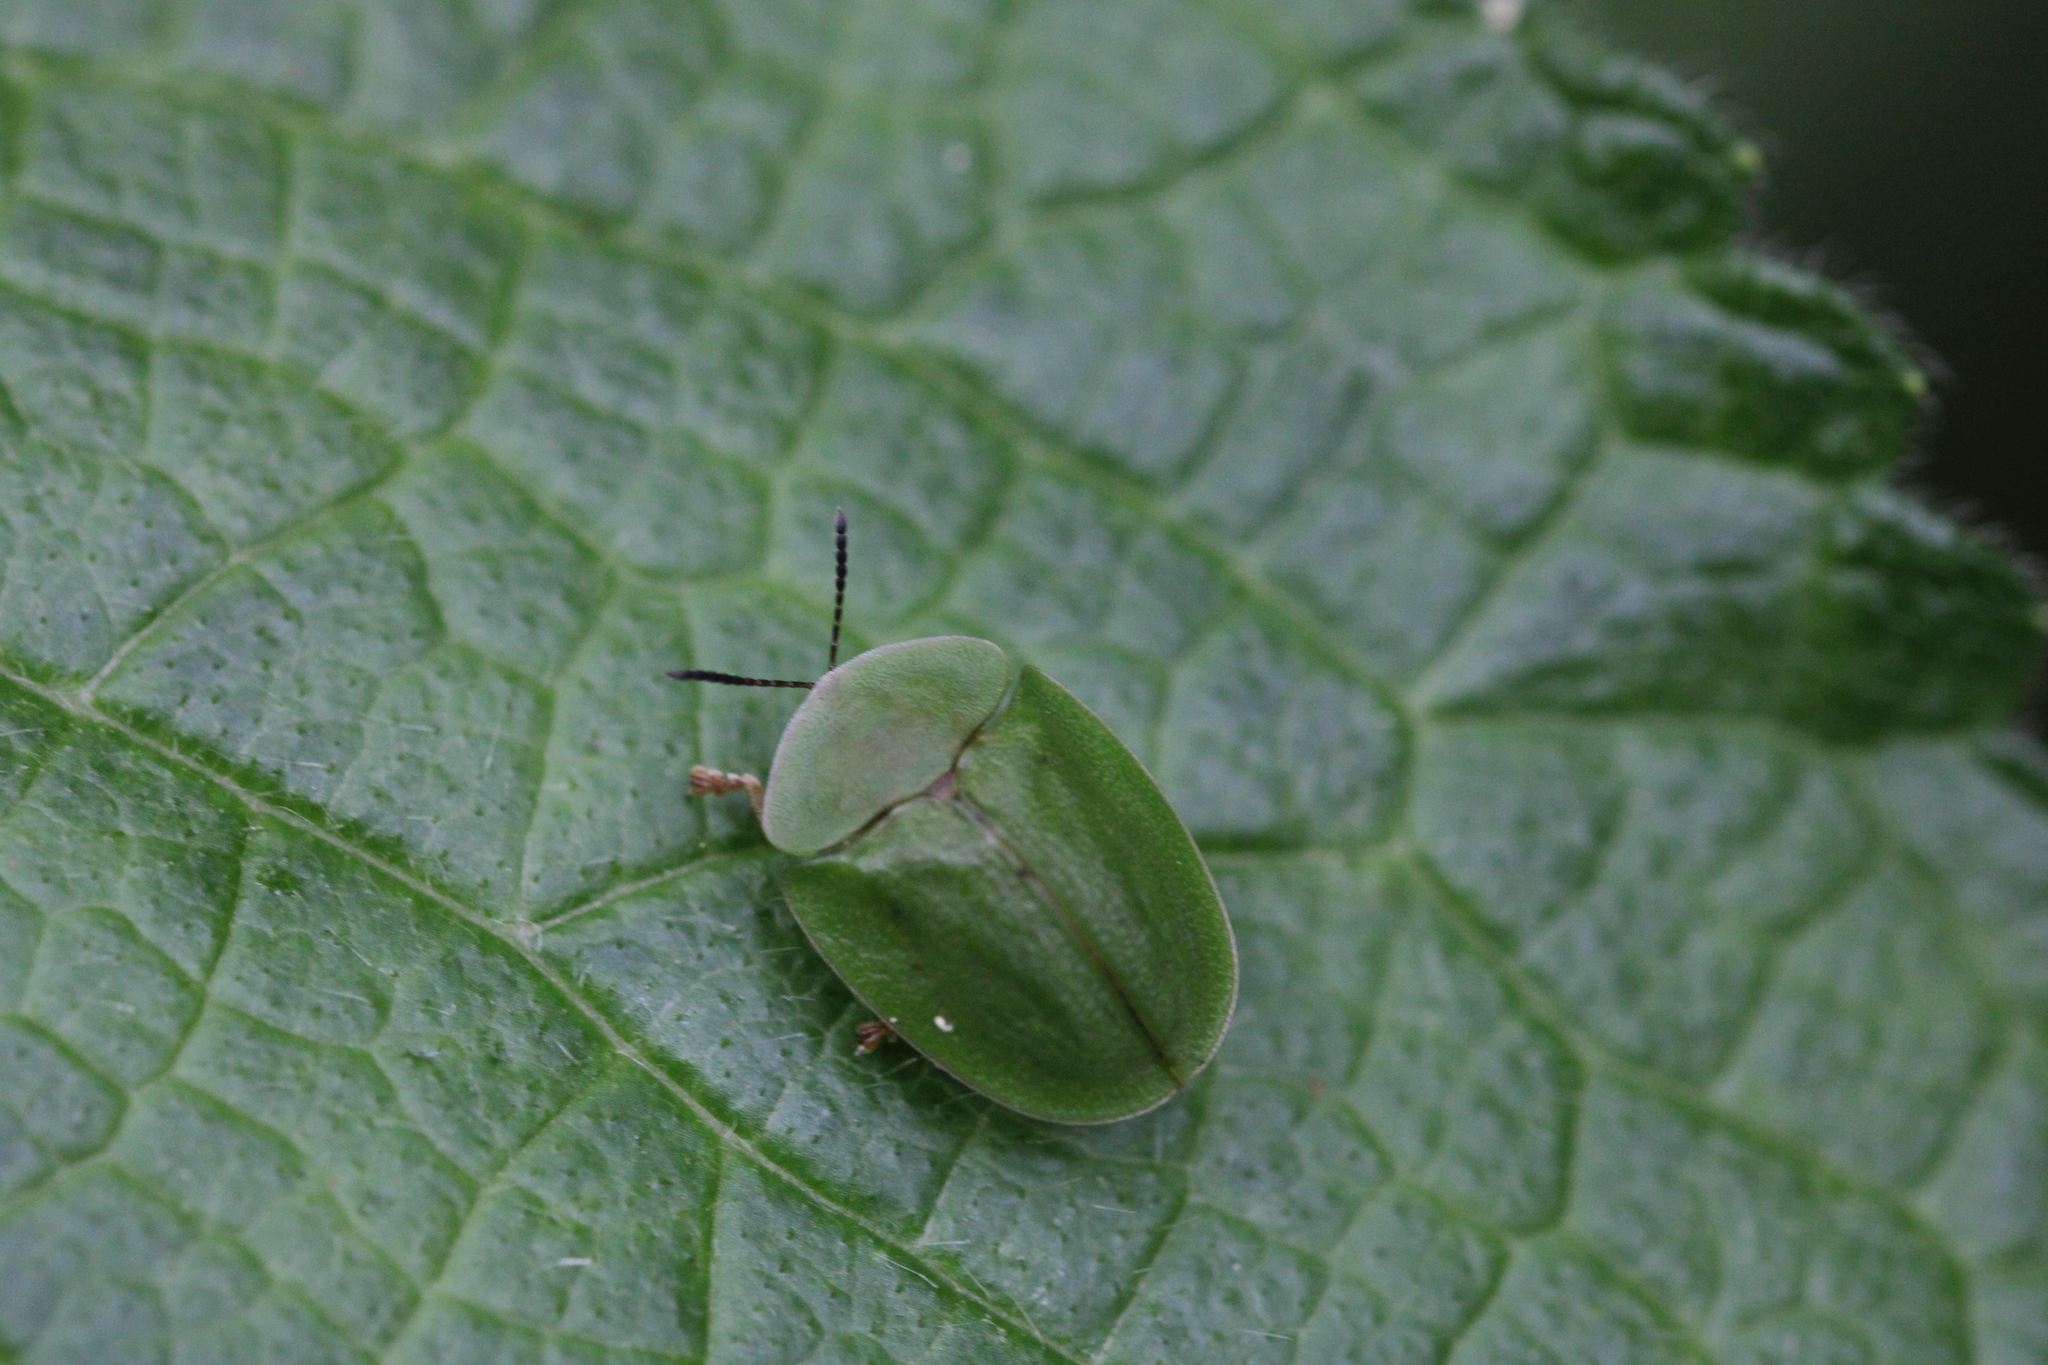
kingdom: Animalia
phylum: Arthropoda
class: Insecta
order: Coleoptera
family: Chrysomelidae
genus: Cassida
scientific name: Cassida viridis
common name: Green tortoise beetle
